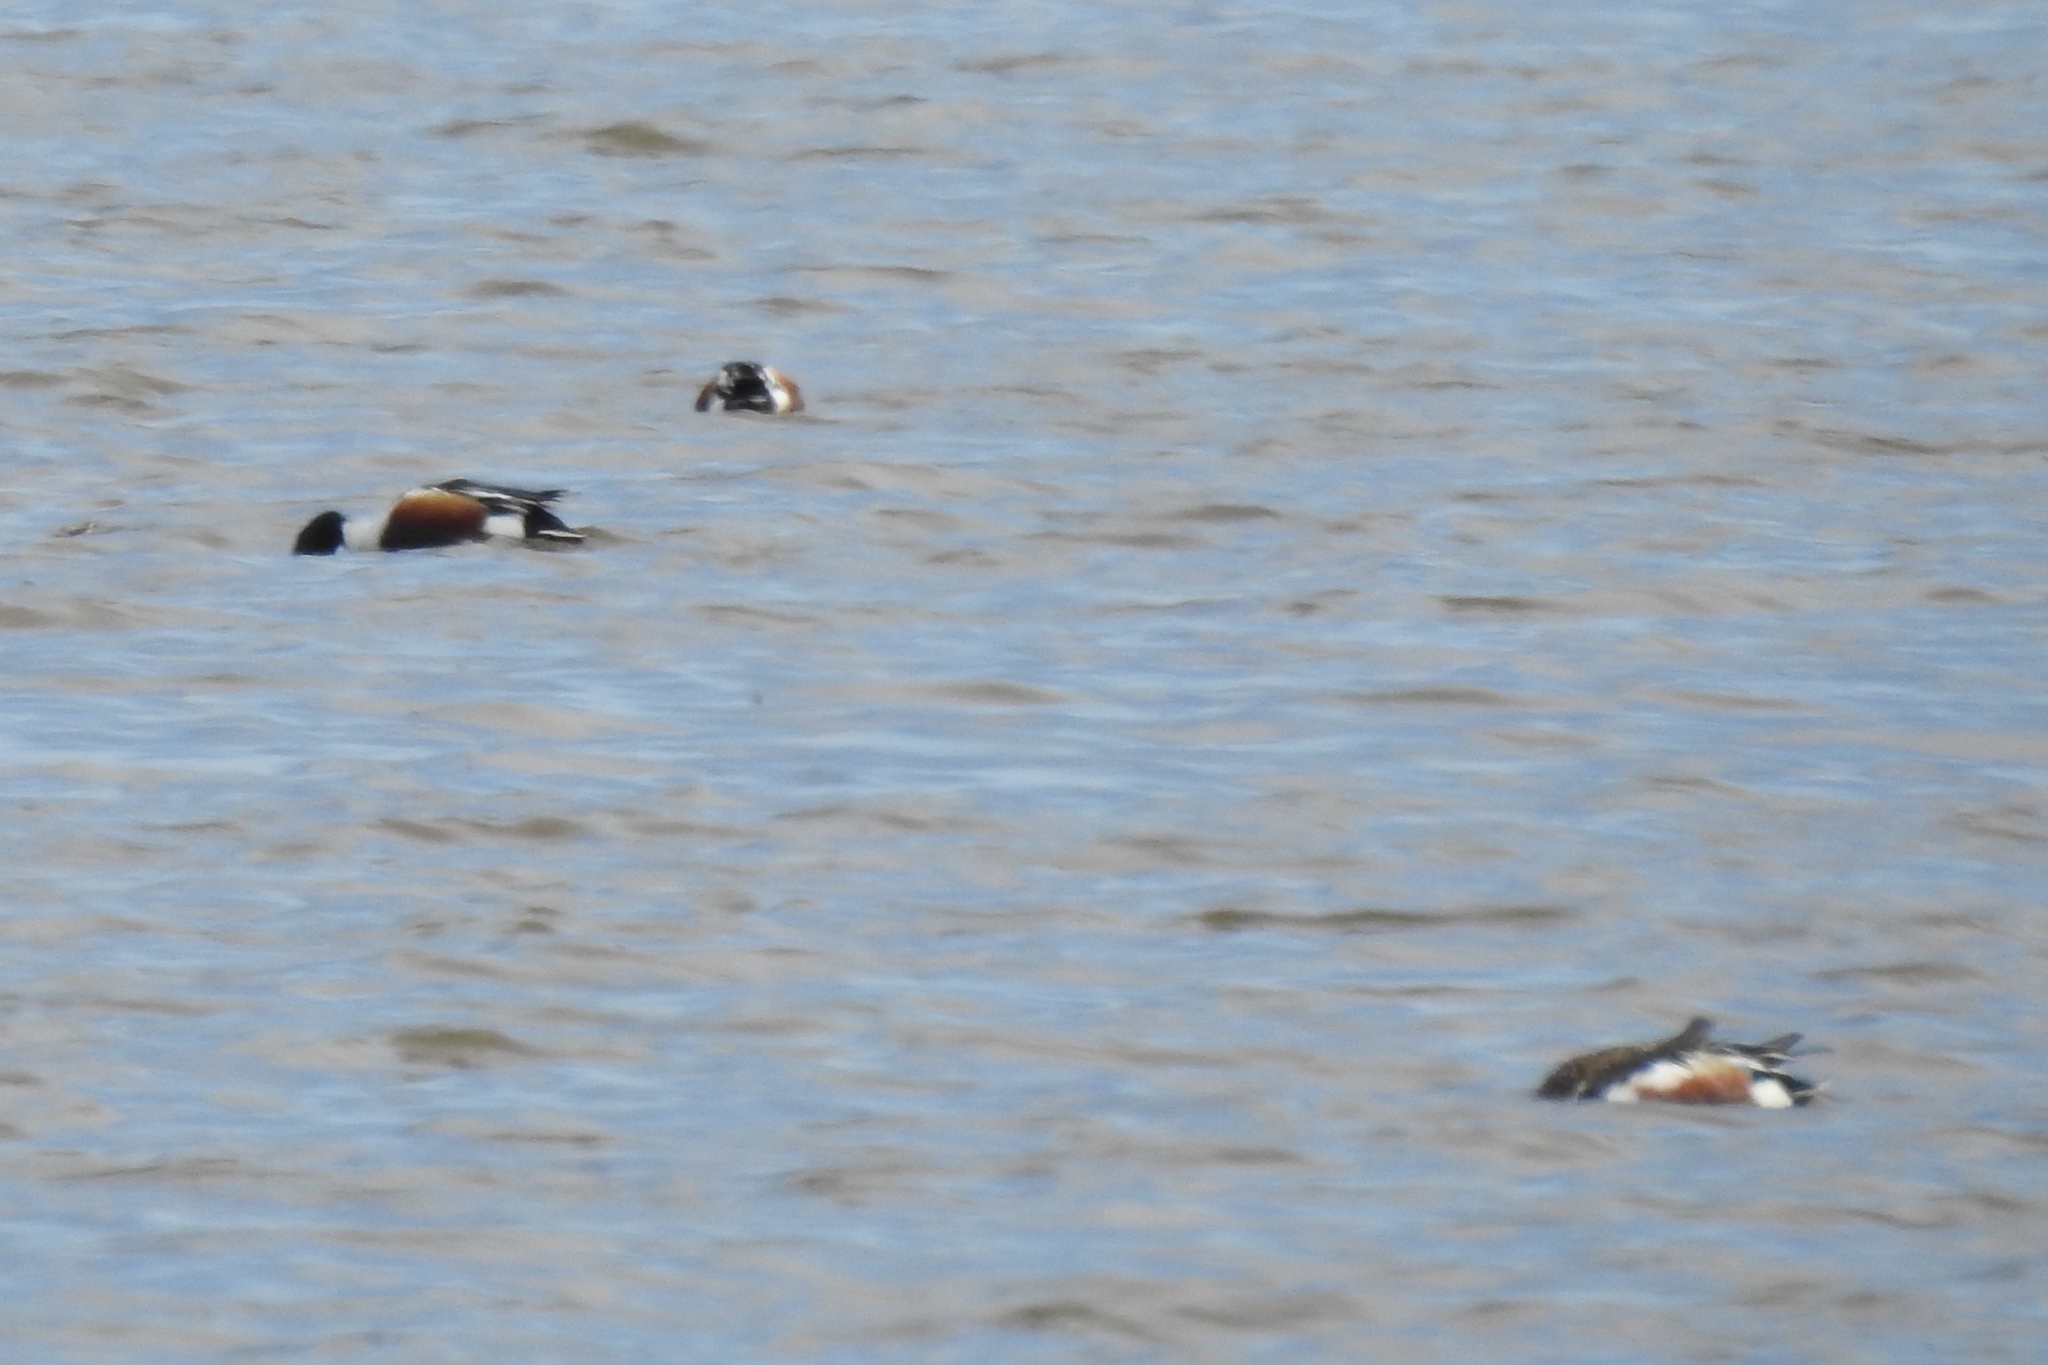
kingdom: Animalia
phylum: Chordata
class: Aves
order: Anseriformes
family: Anatidae
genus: Spatula
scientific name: Spatula clypeata
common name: Northern shoveler
